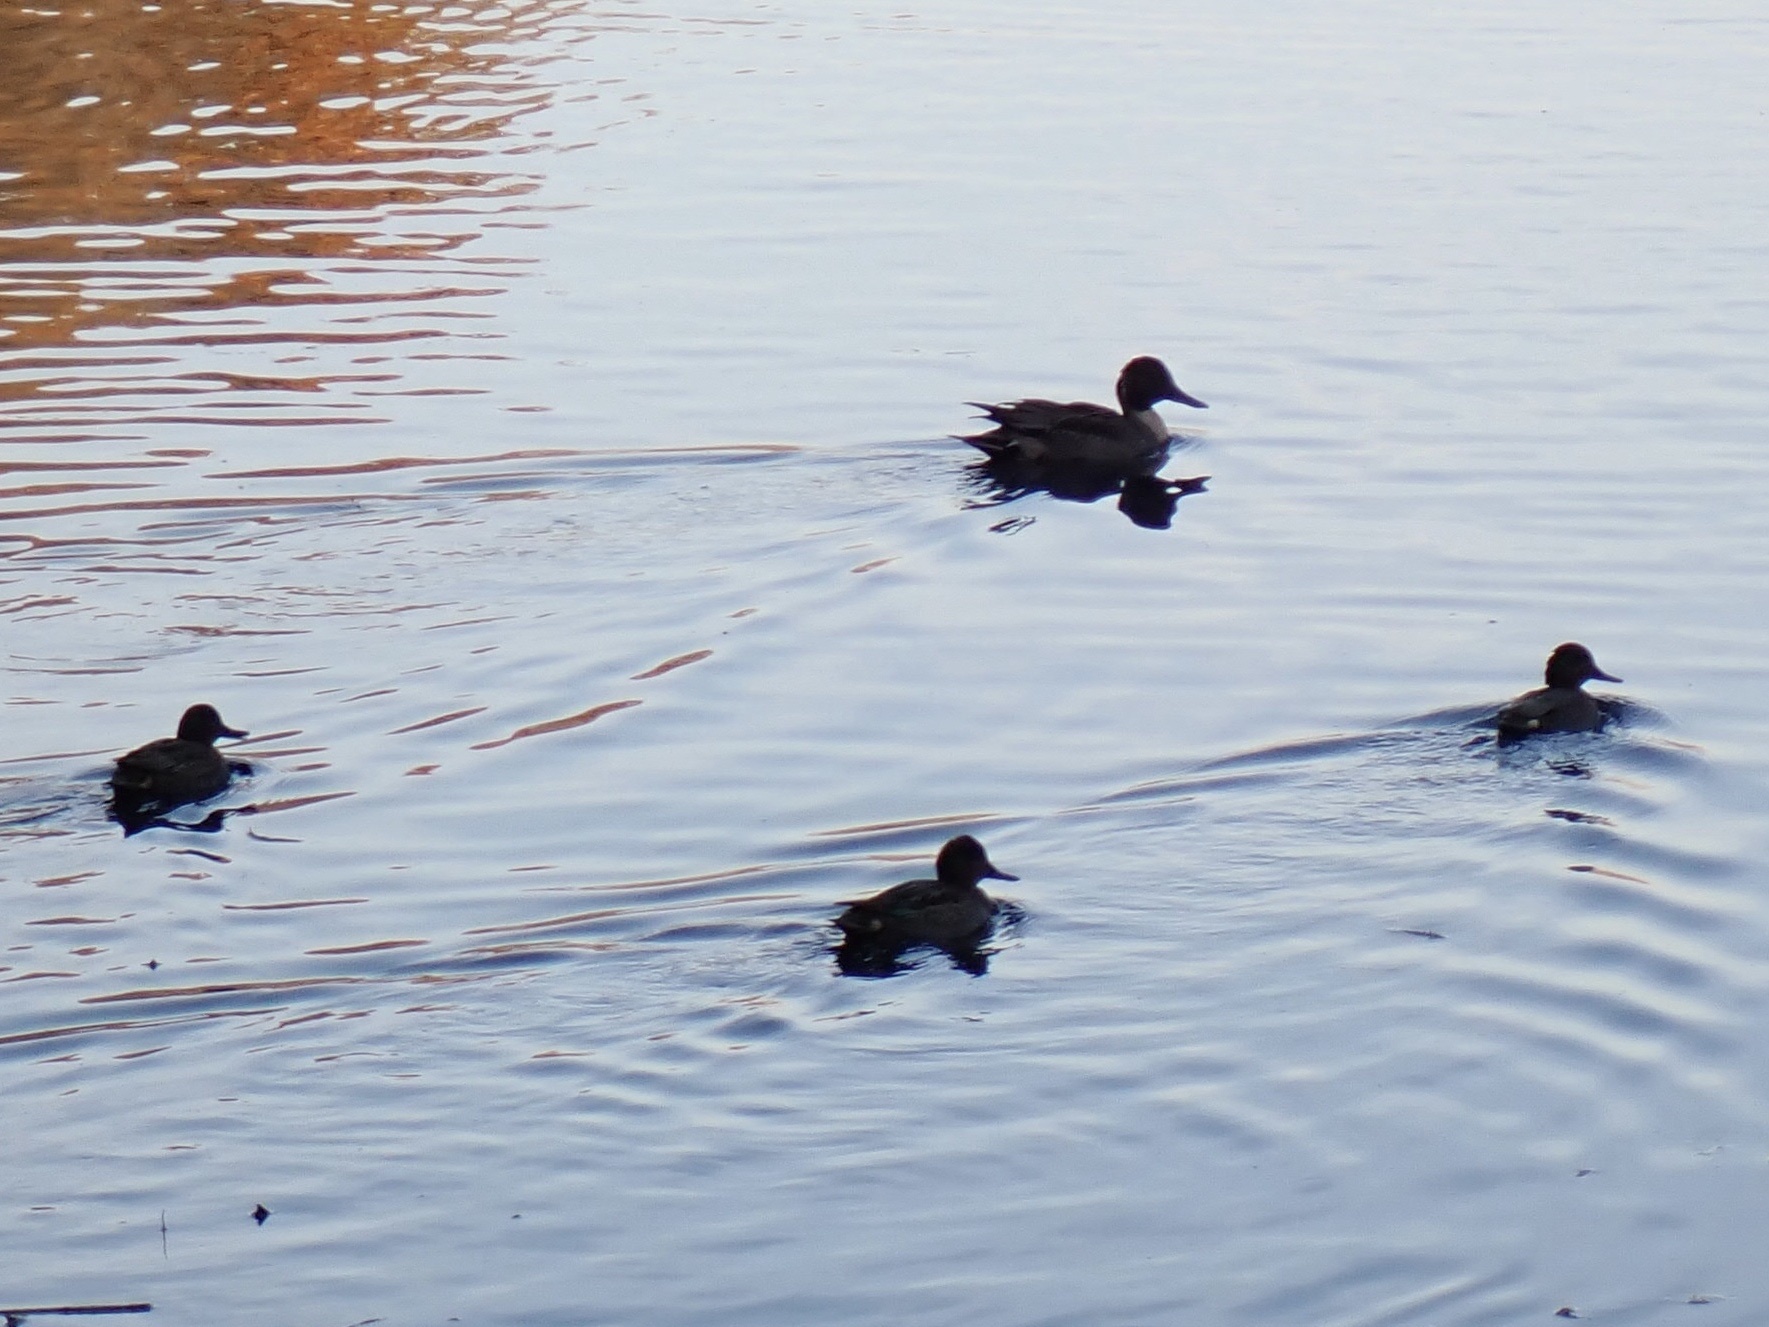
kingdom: Animalia
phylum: Chordata
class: Aves
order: Anseriformes
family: Anatidae
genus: Anas
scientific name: Anas acuta
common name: Northern pintail
